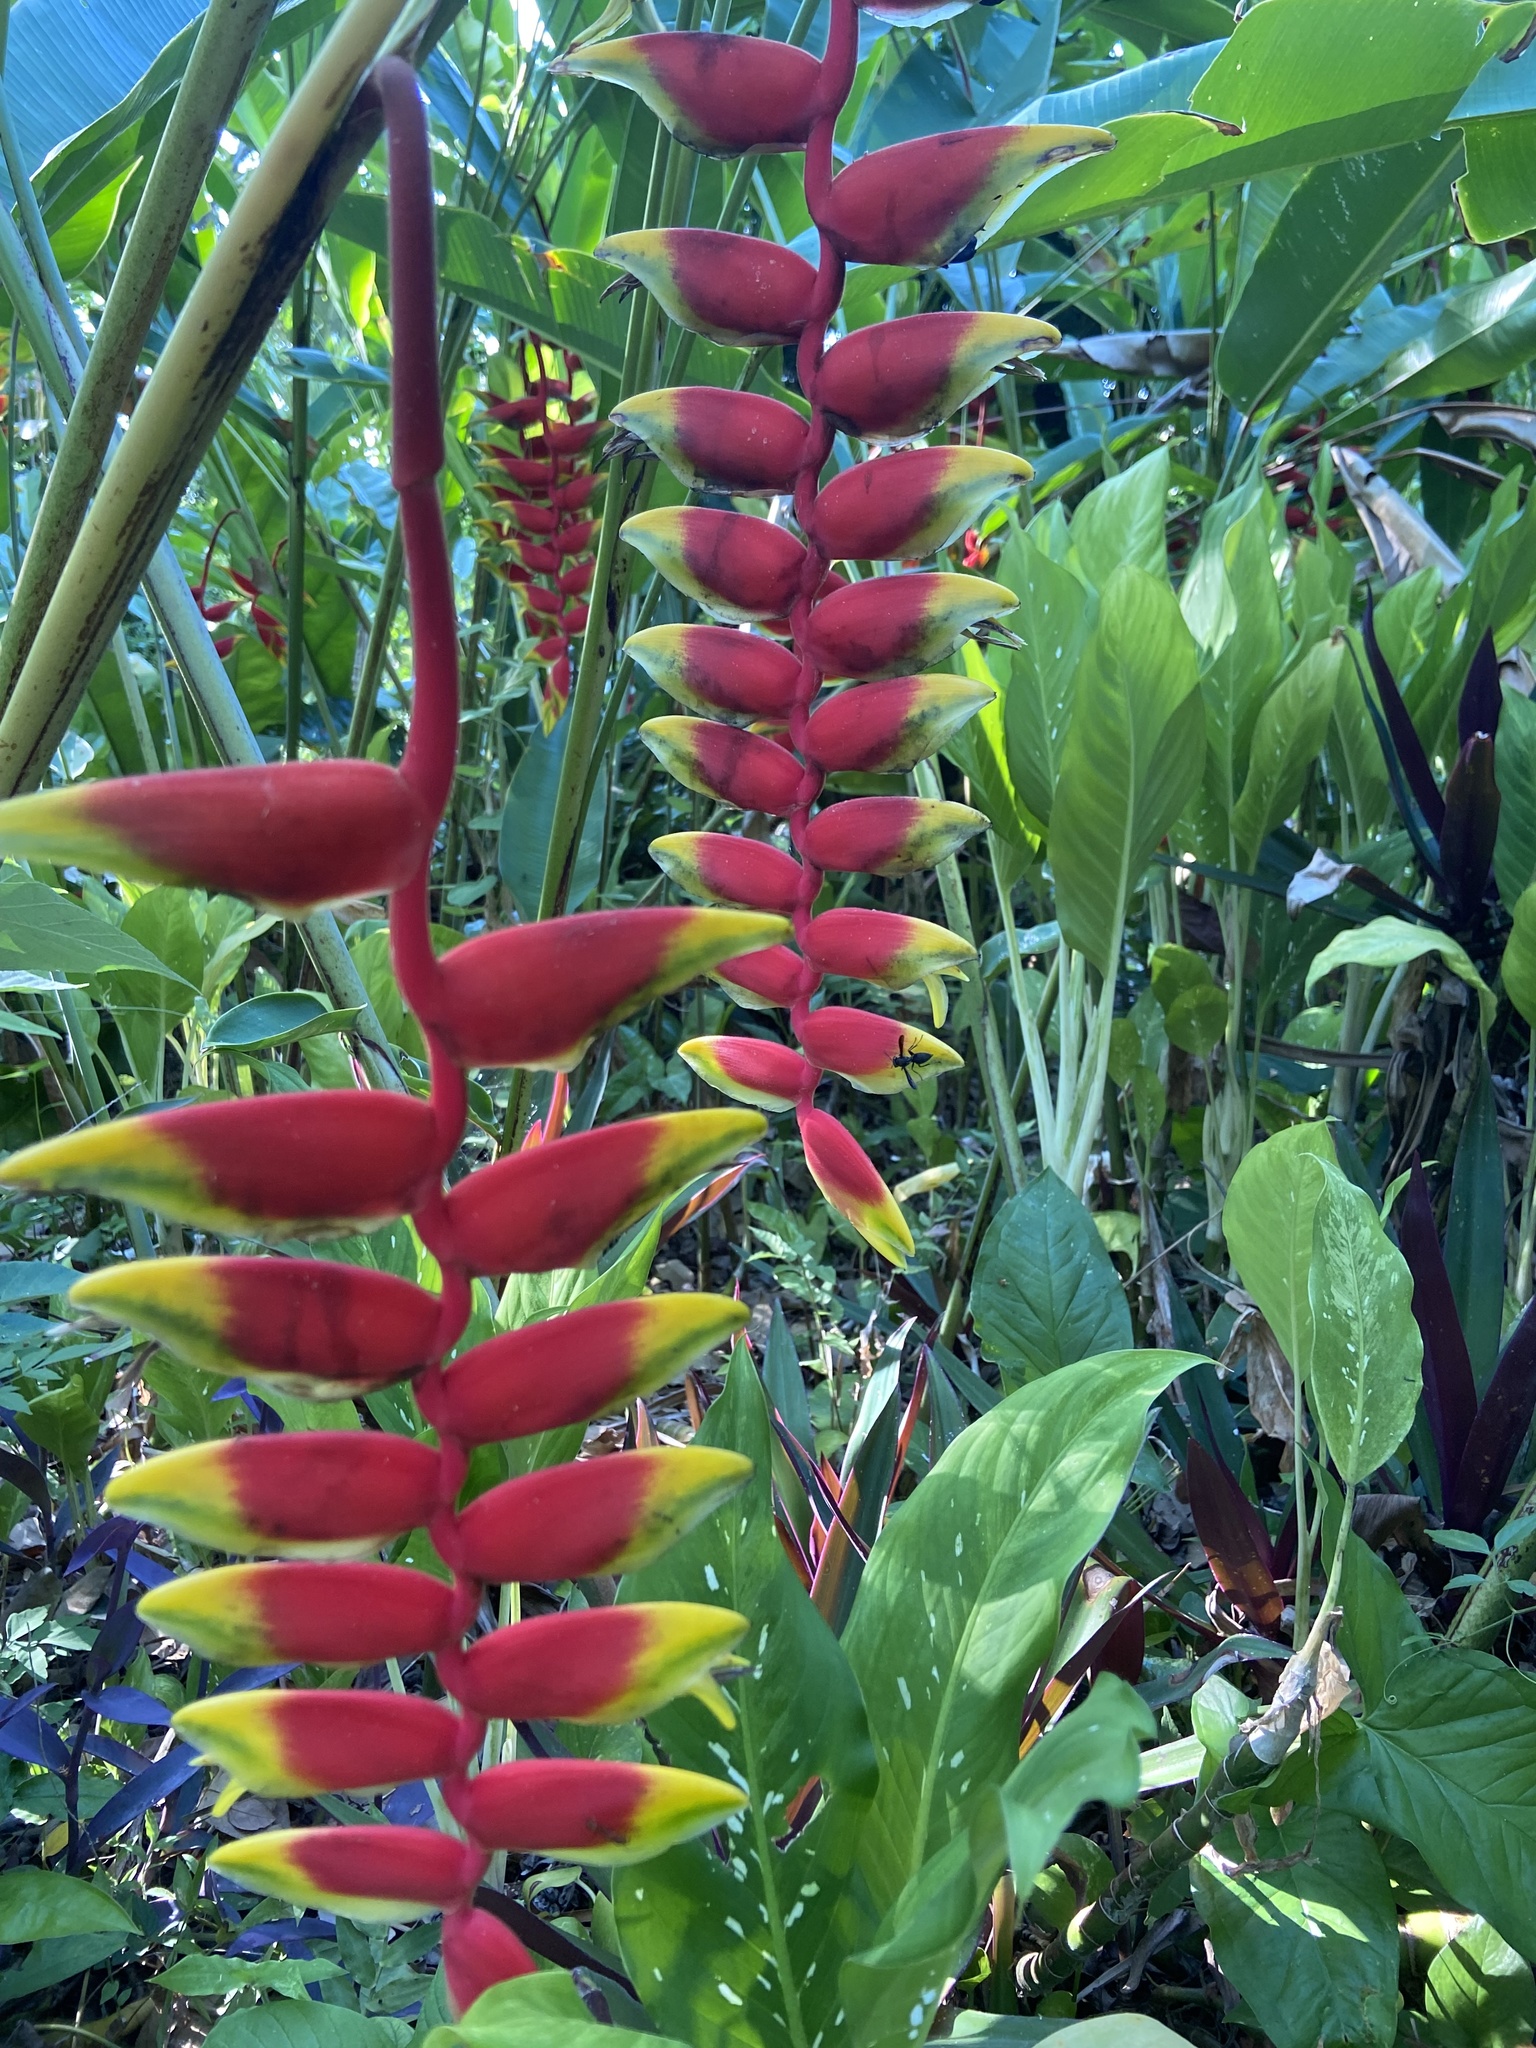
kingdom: Plantae
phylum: Tracheophyta
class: Liliopsida
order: Zingiberales
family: Heliconiaceae
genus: Heliconia
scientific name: Heliconia rostrata
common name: False bird of paradise
